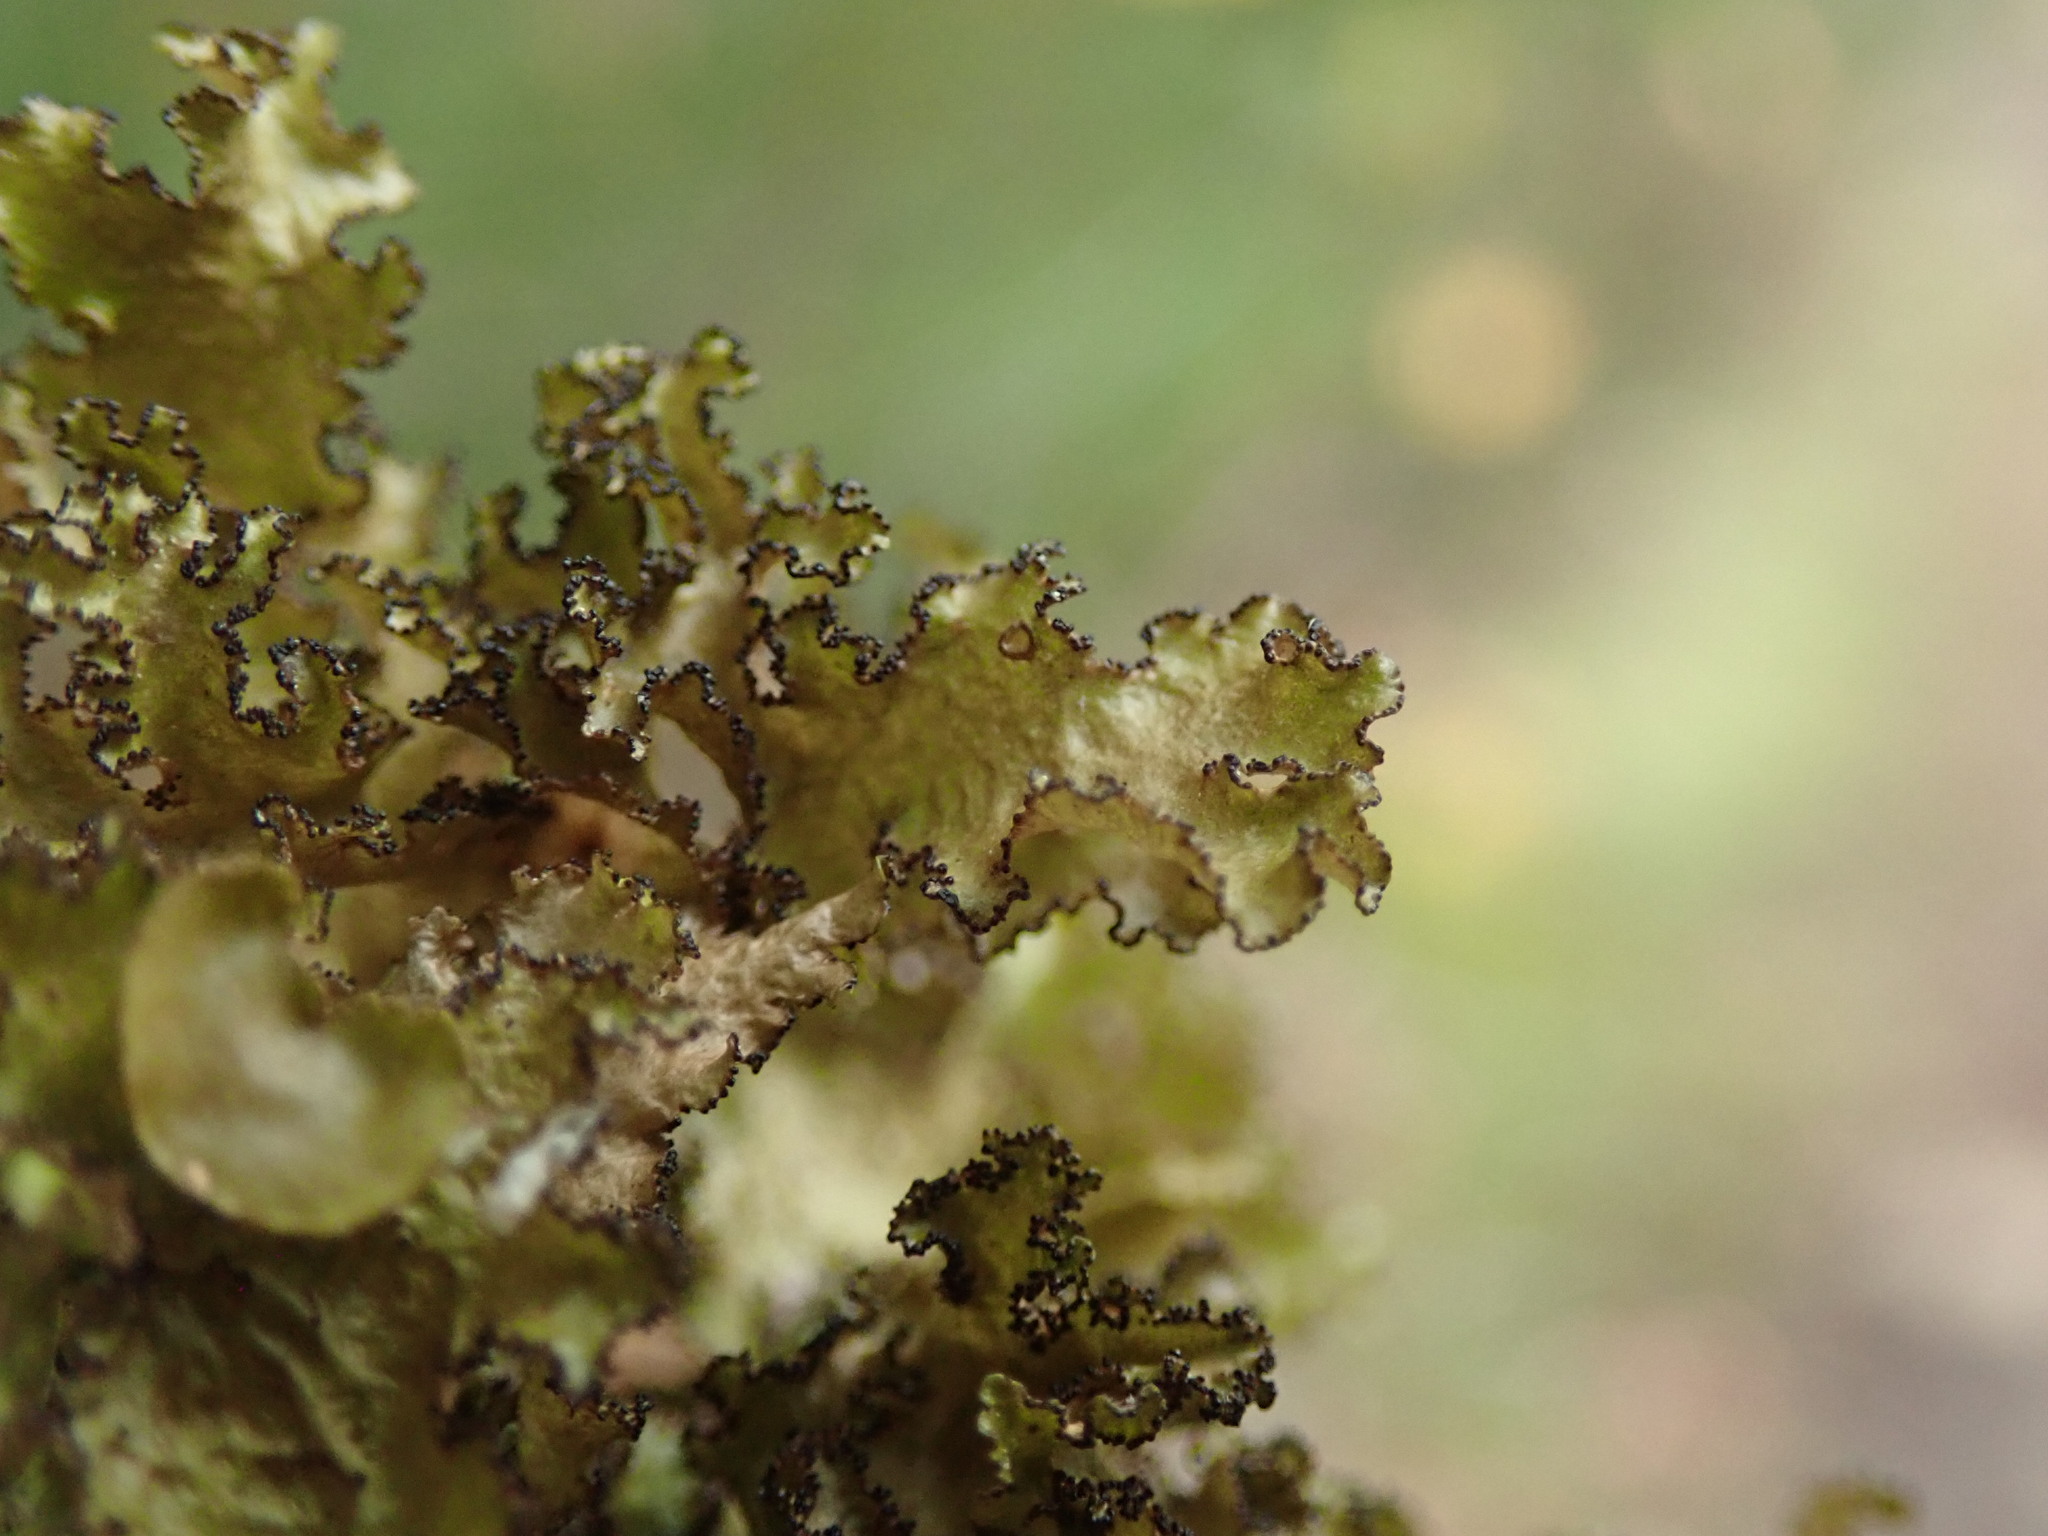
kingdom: Fungi
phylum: Ascomycota
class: Lecanoromycetes
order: Lecanorales
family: Parmeliaceae
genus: Nephromopsis
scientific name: Nephromopsis orbata
